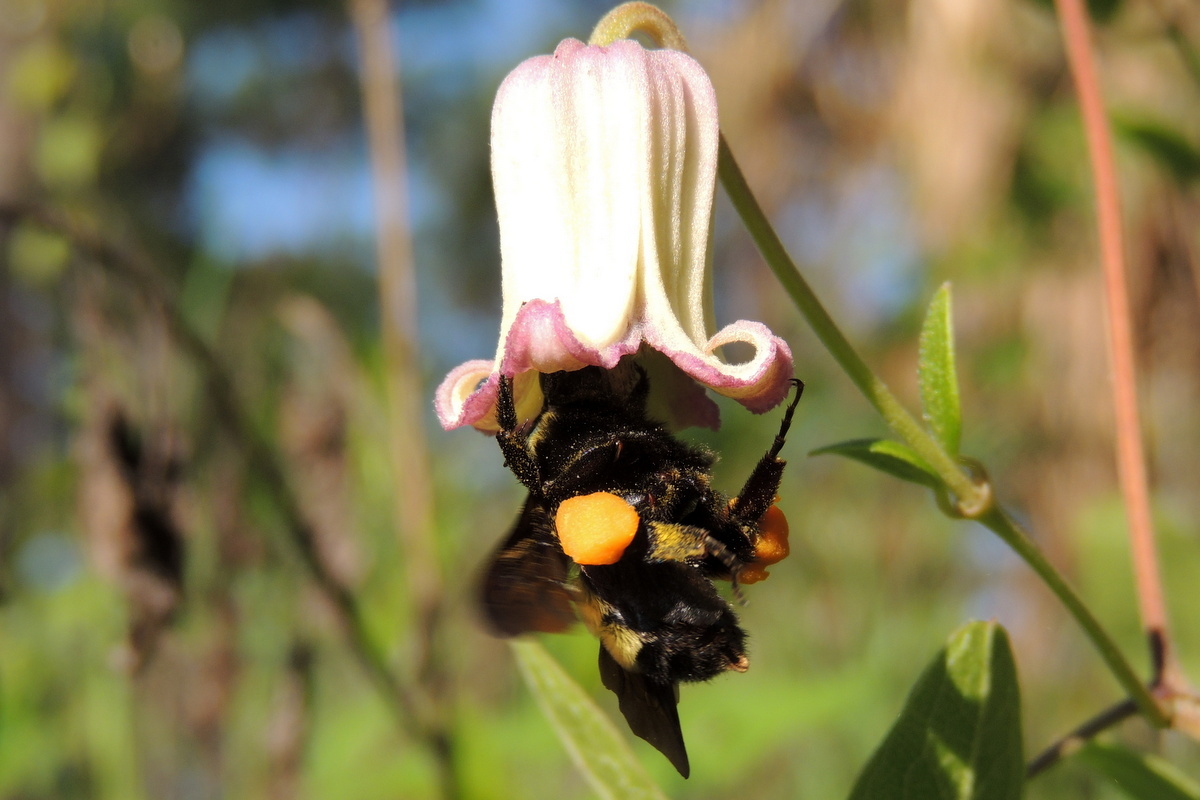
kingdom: Animalia
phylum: Arthropoda
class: Insecta
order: Hymenoptera
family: Apidae
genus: Bombus
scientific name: Bombus pensylvanicus
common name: Bumble bee
